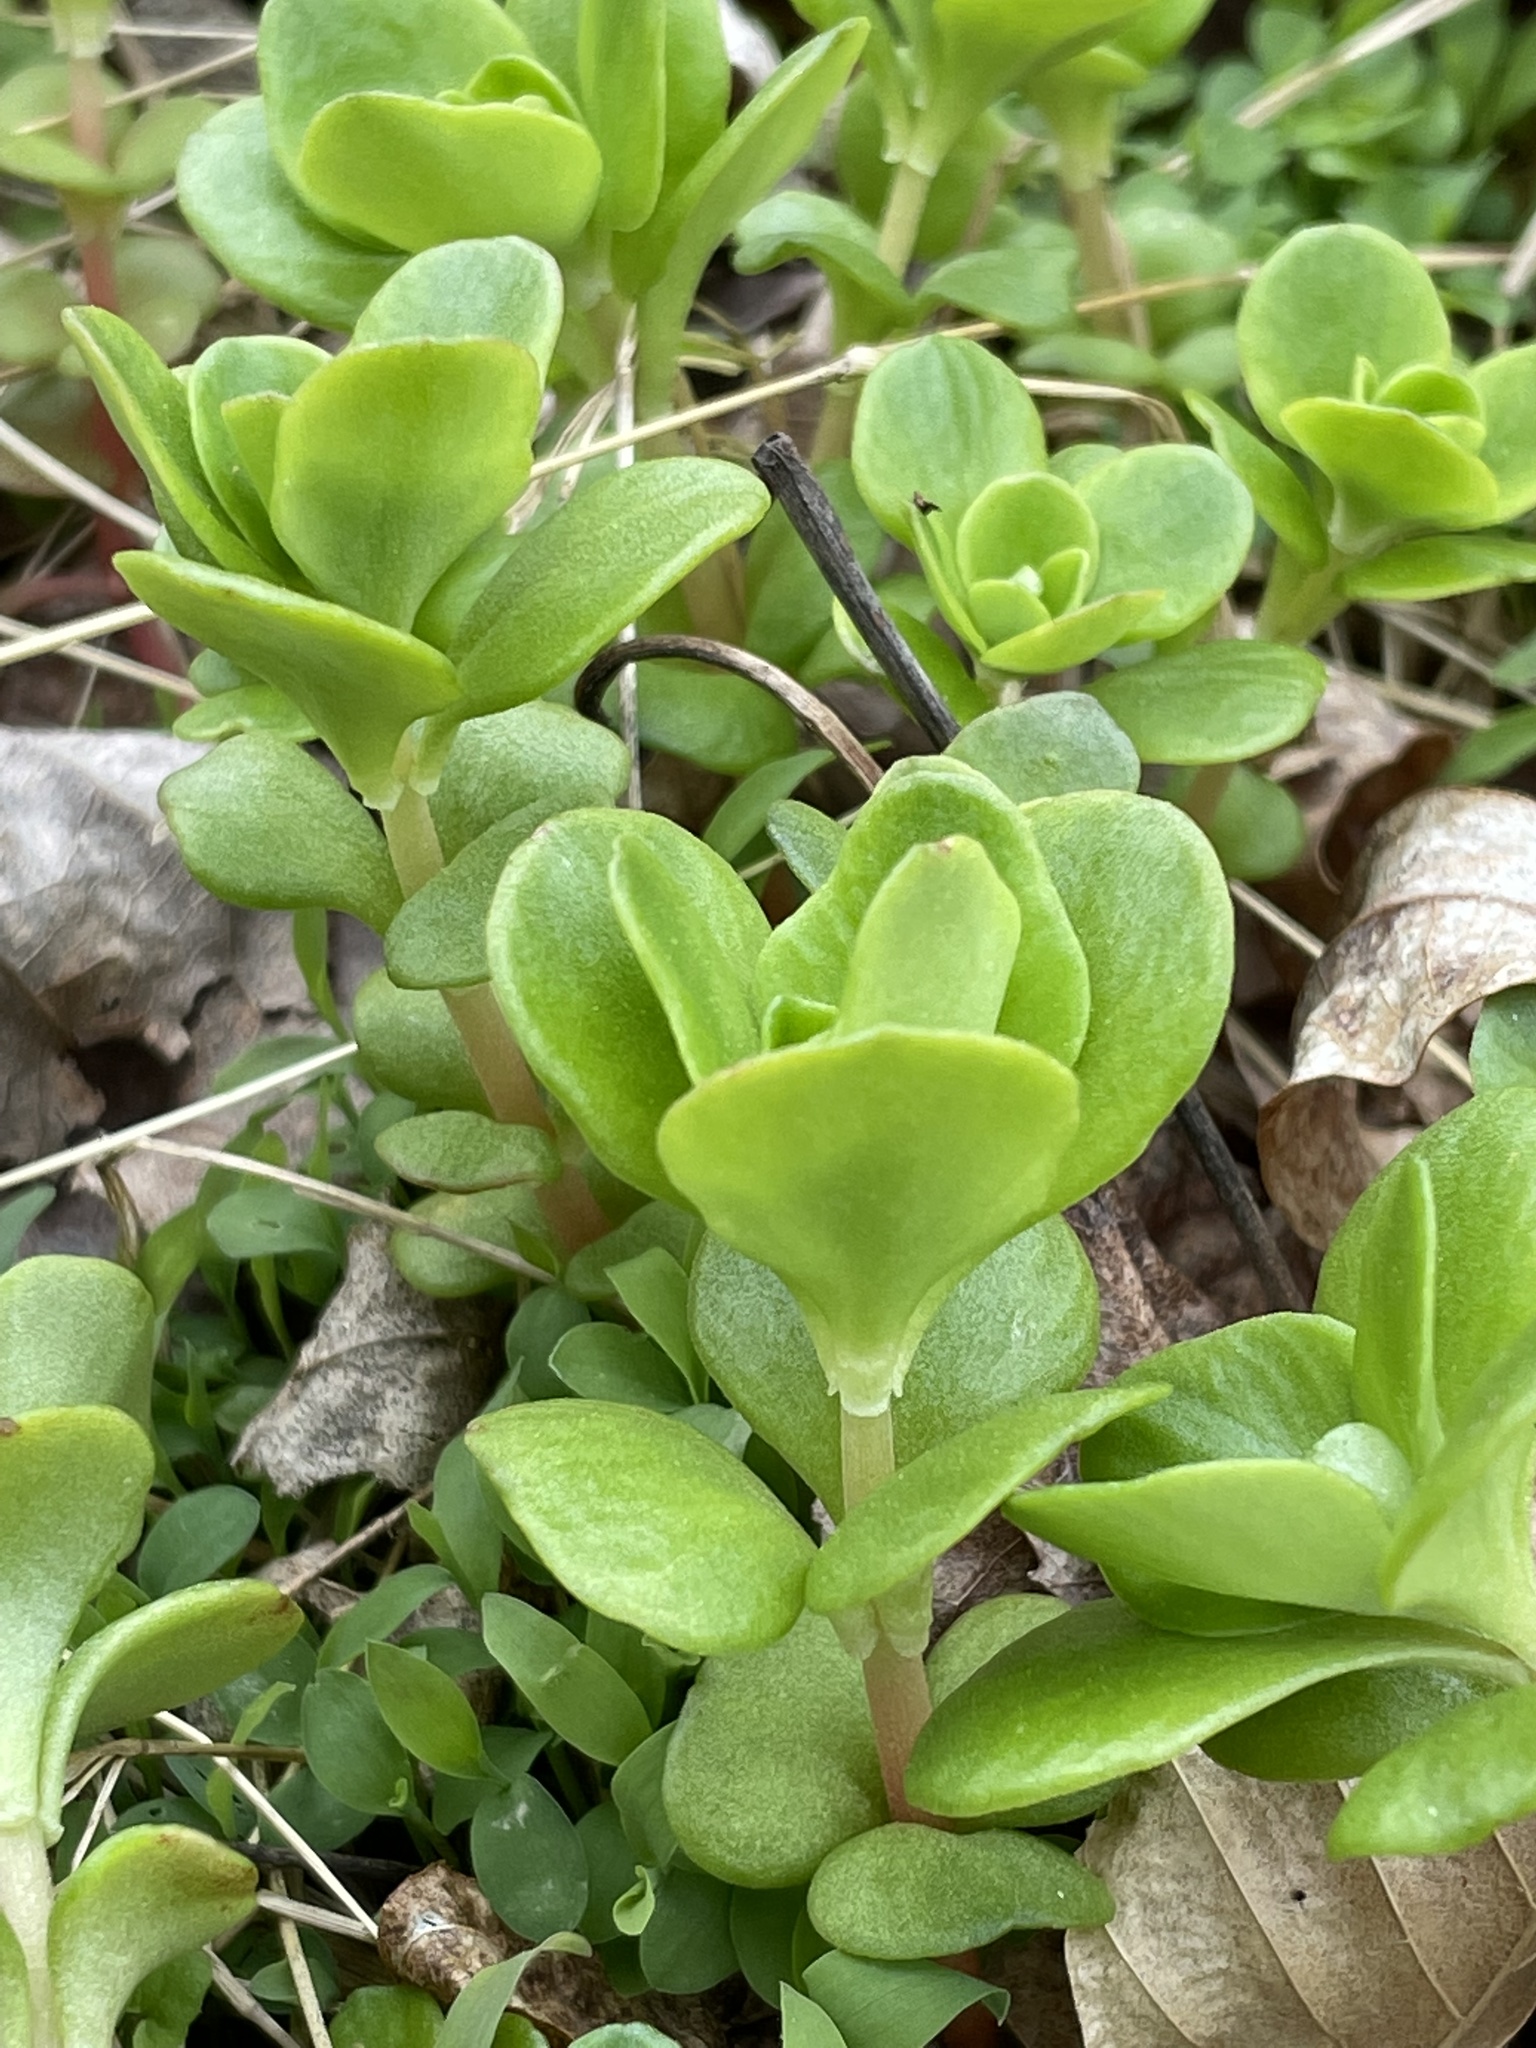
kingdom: Plantae
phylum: Tracheophyta
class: Magnoliopsida
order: Saxifragales
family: Crassulaceae
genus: Sedum
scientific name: Sedum ternatum
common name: Wild stonecrop
